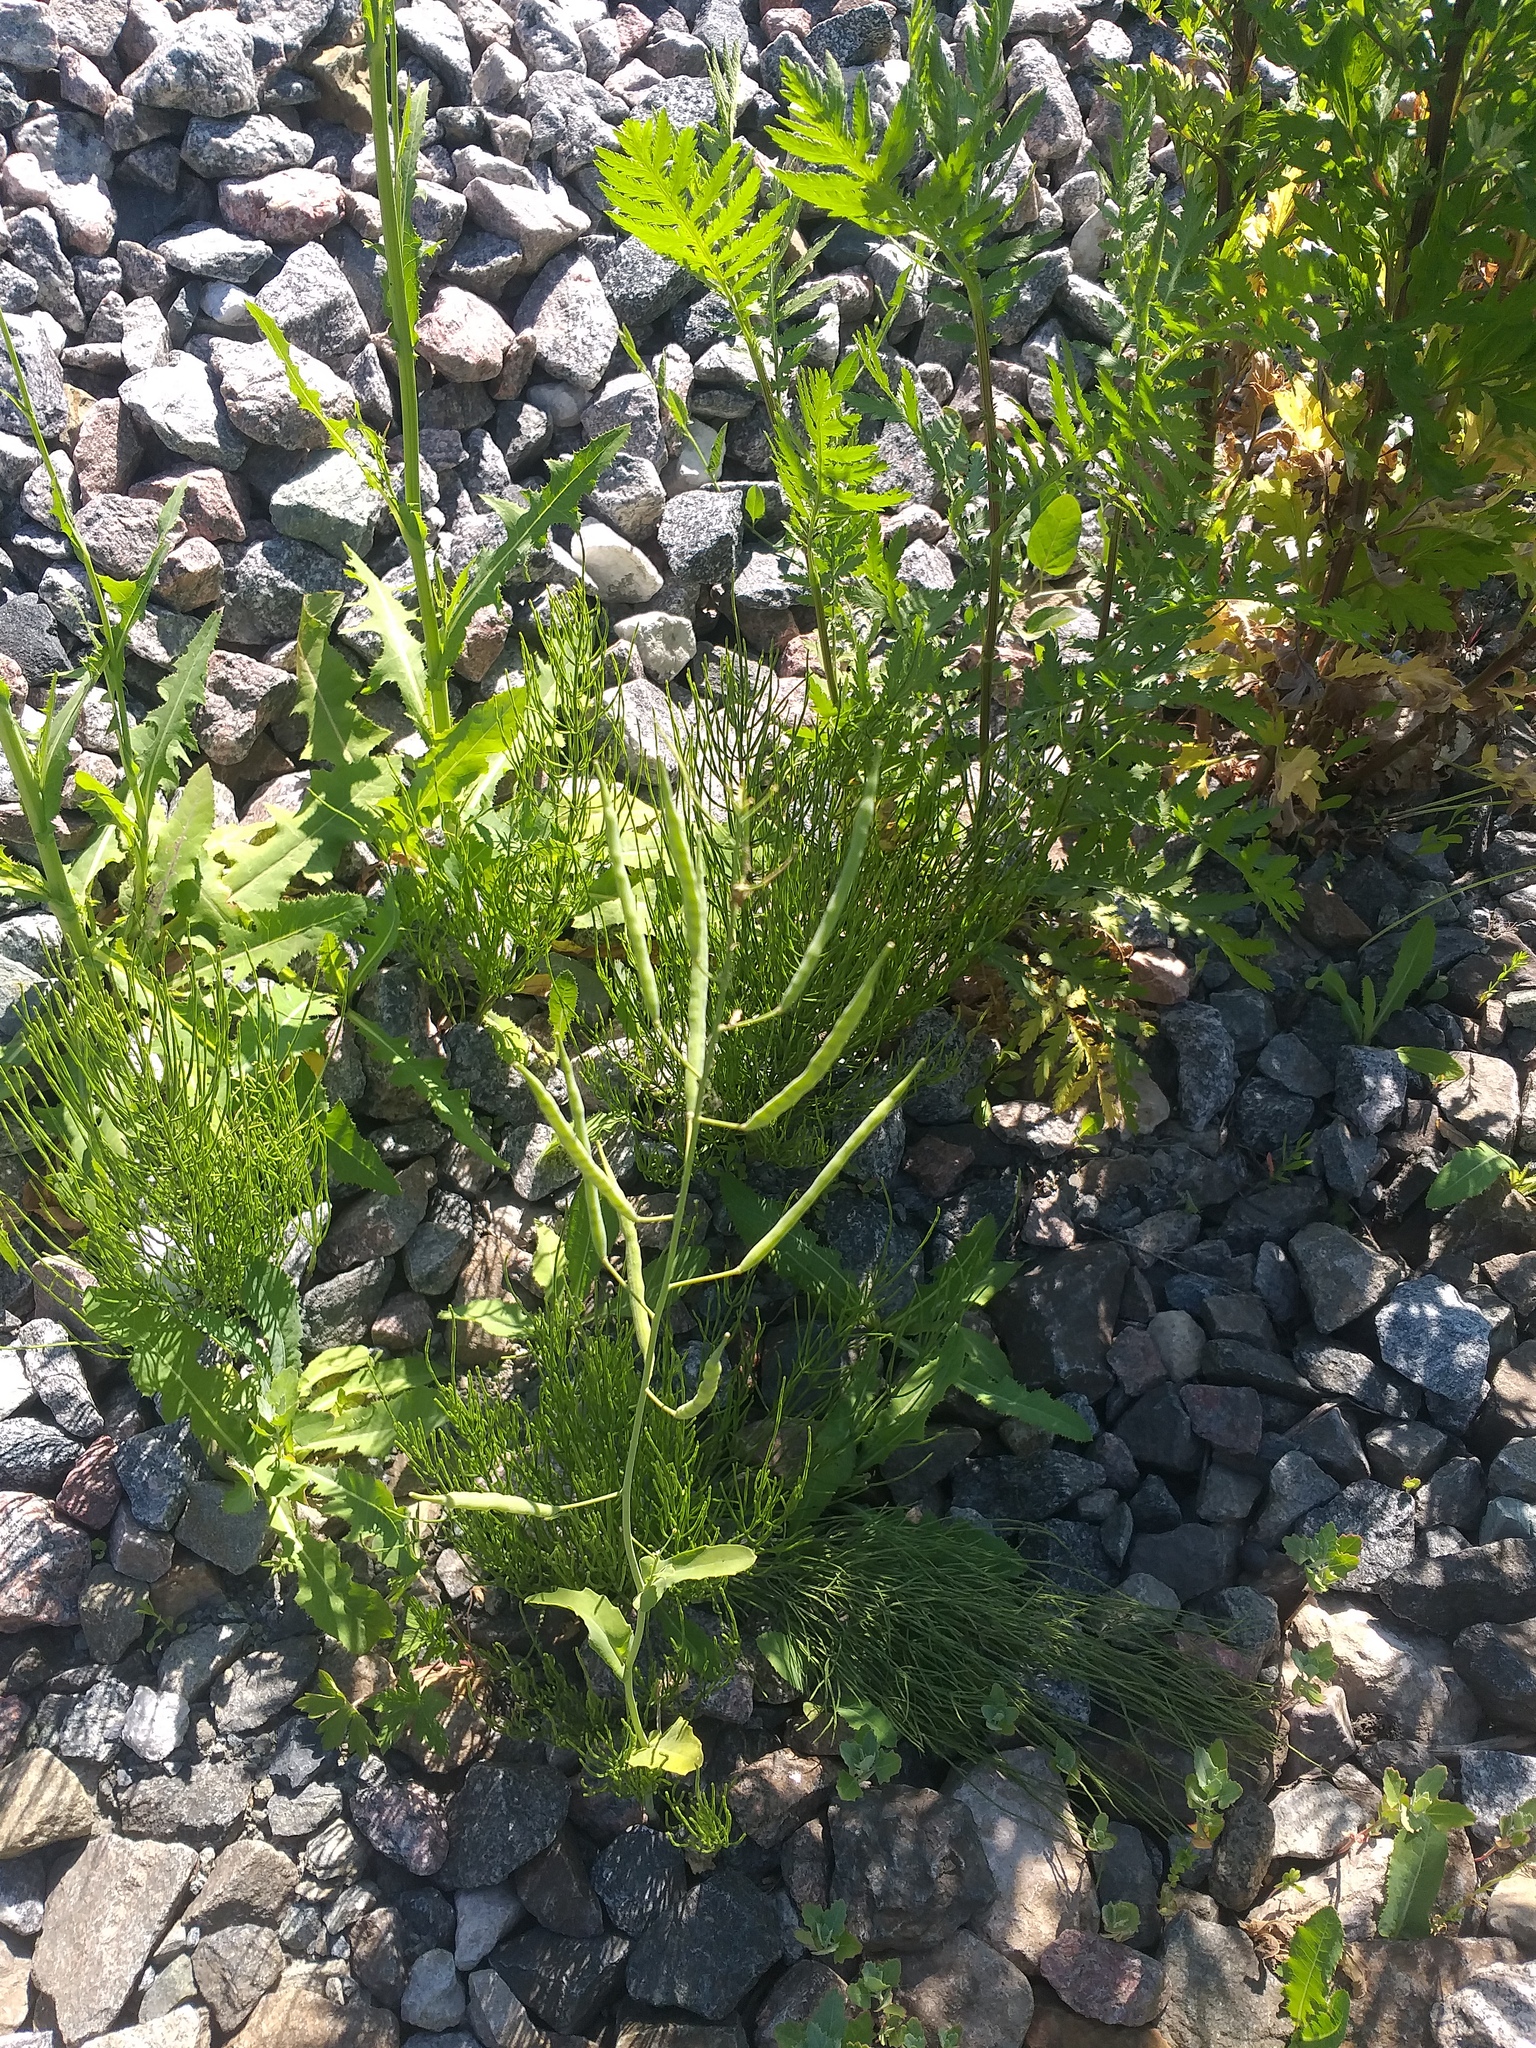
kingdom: Plantae
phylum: Tracheophyta
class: Magnoliopsida
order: Brassicales
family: Brassicaceae
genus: Brassica
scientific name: Brassica napus
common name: Rape
